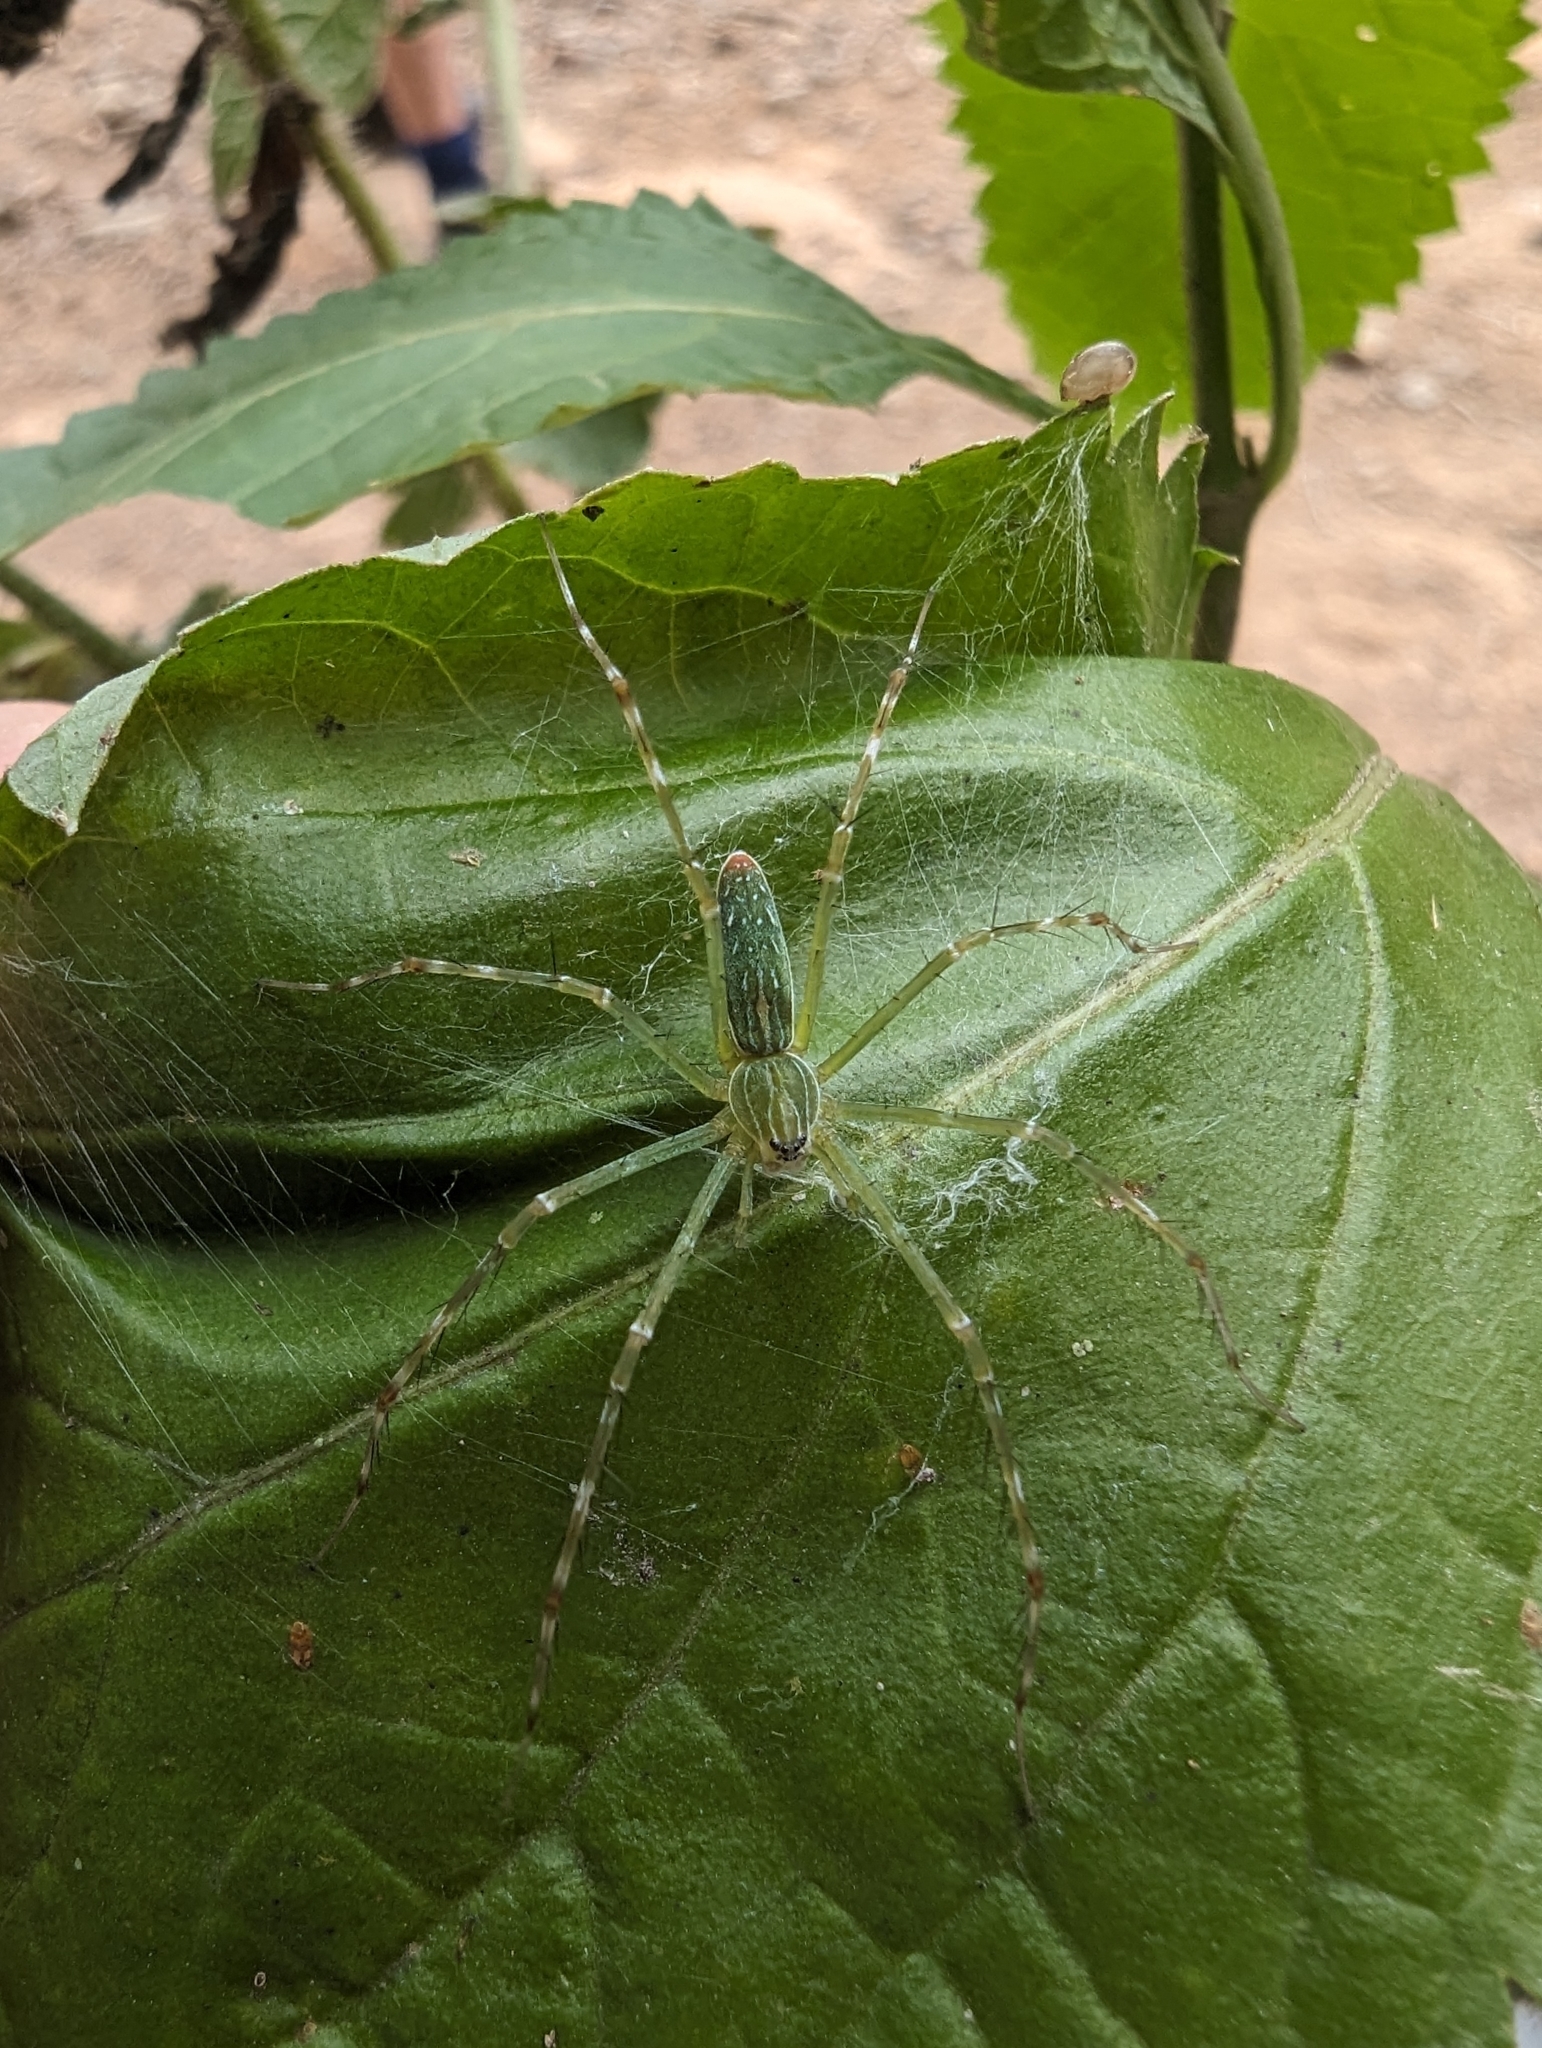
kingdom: Animalia
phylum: Arthropoda
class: Arachnida
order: Araneae
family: Pisauridae
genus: Hygropoda
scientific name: Hygropoda lineata
